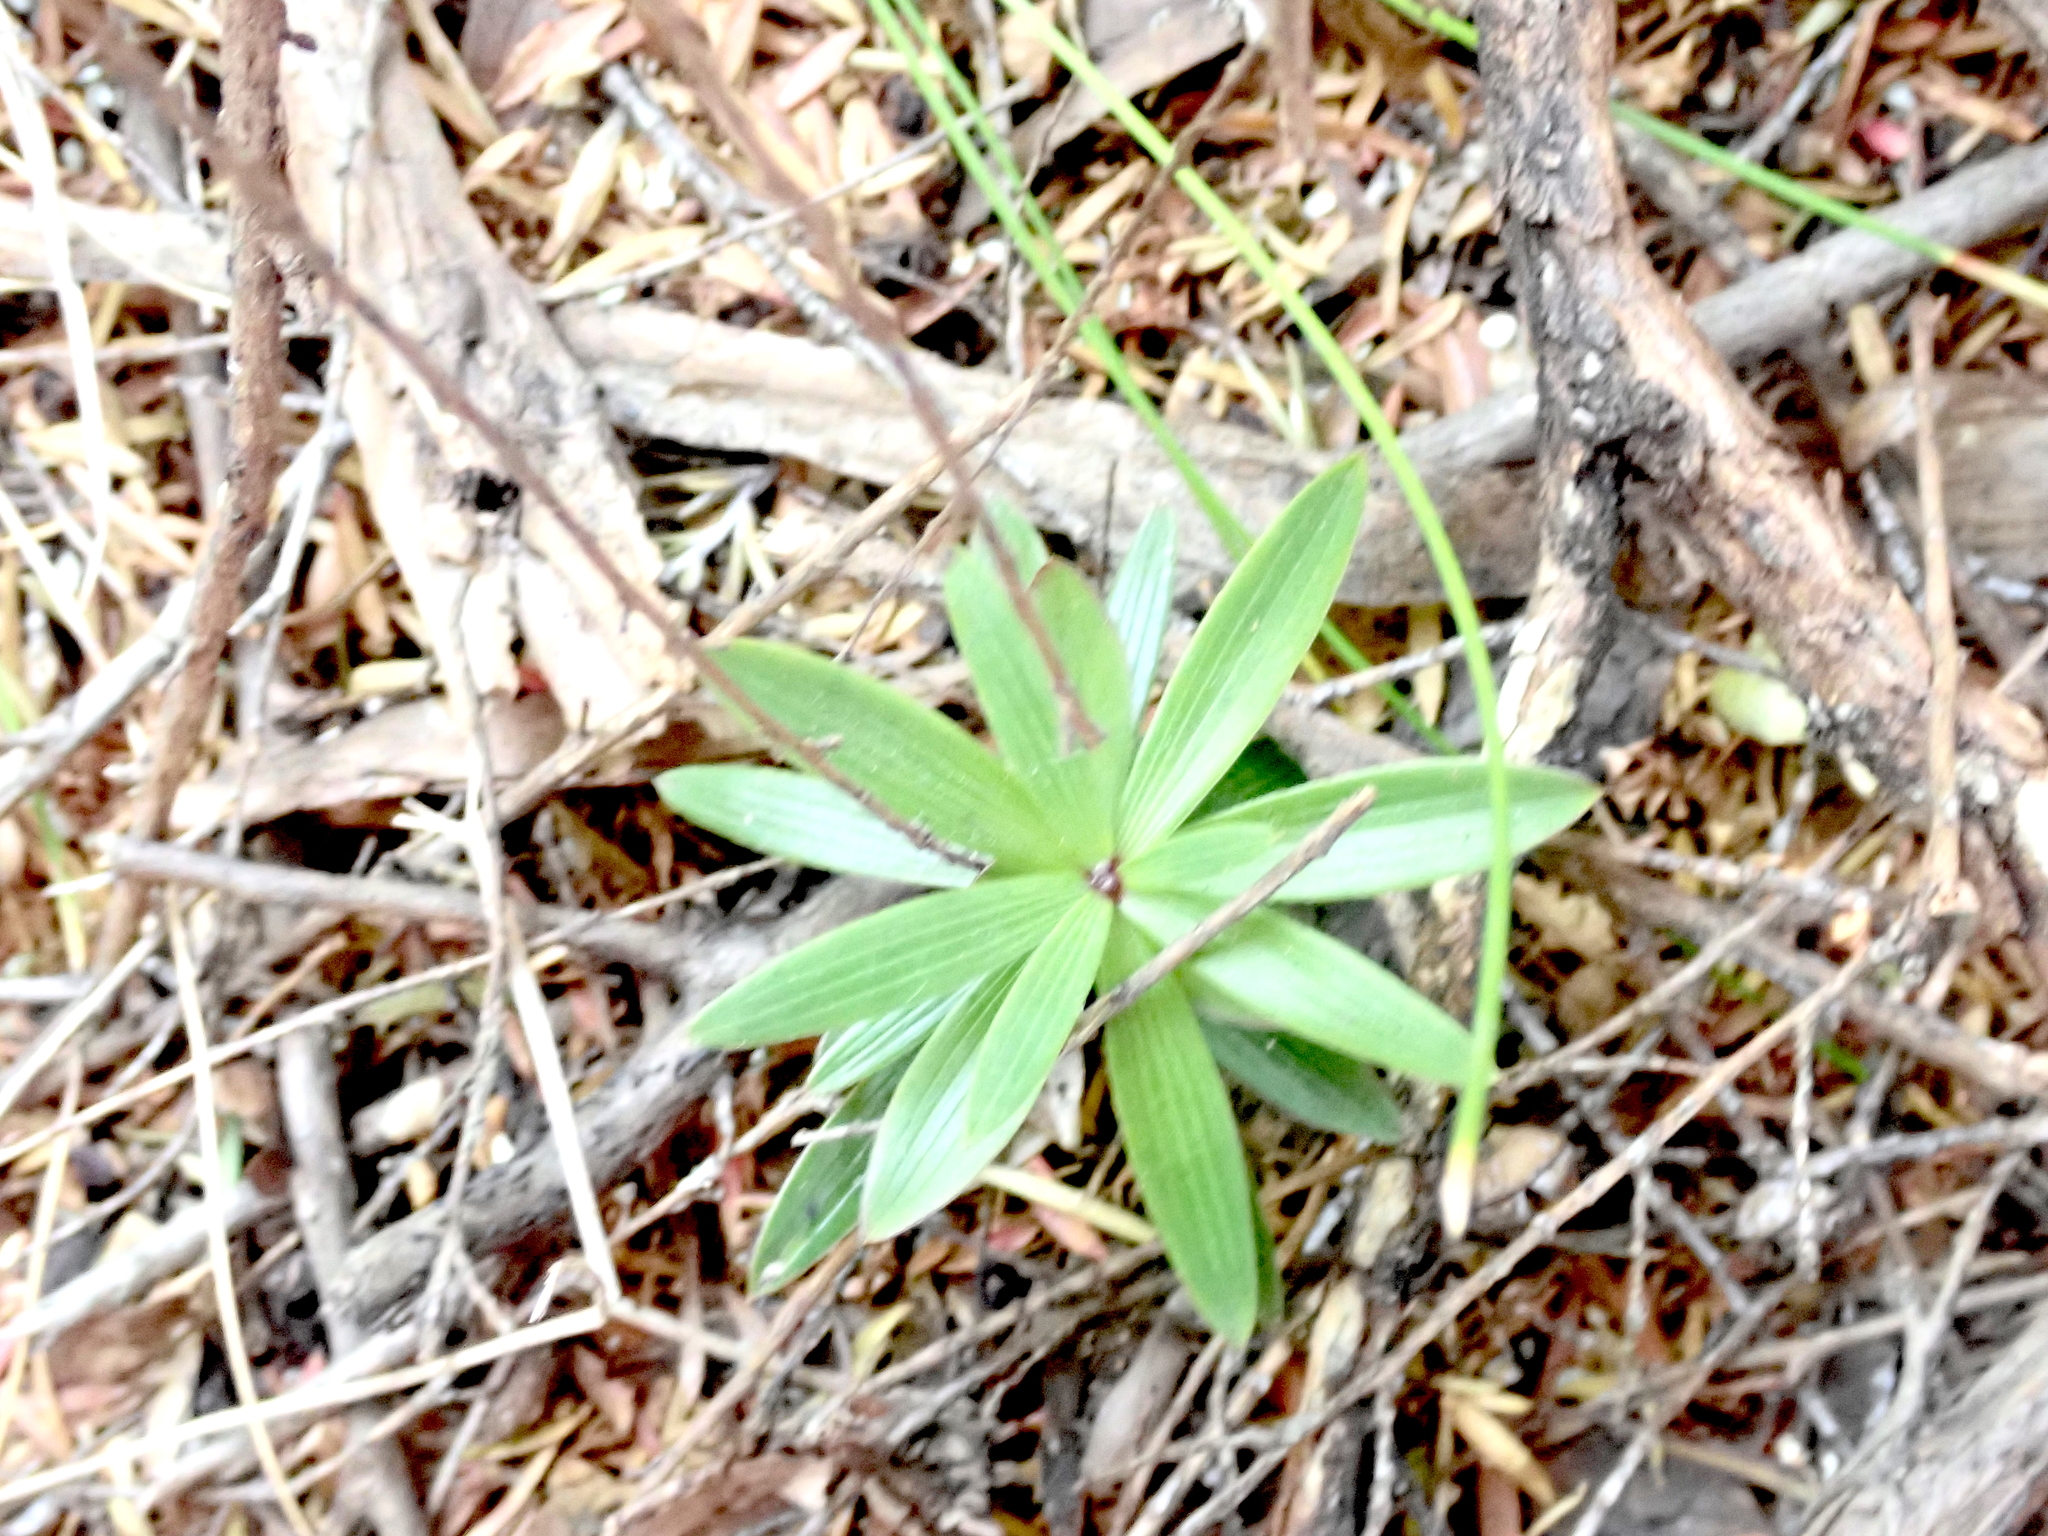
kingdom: Plantae
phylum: Tracheophyta
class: Magnoliopsida
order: Ericales
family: Ericaceae
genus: Leucopogon
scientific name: Leucopogon fasciculatus
